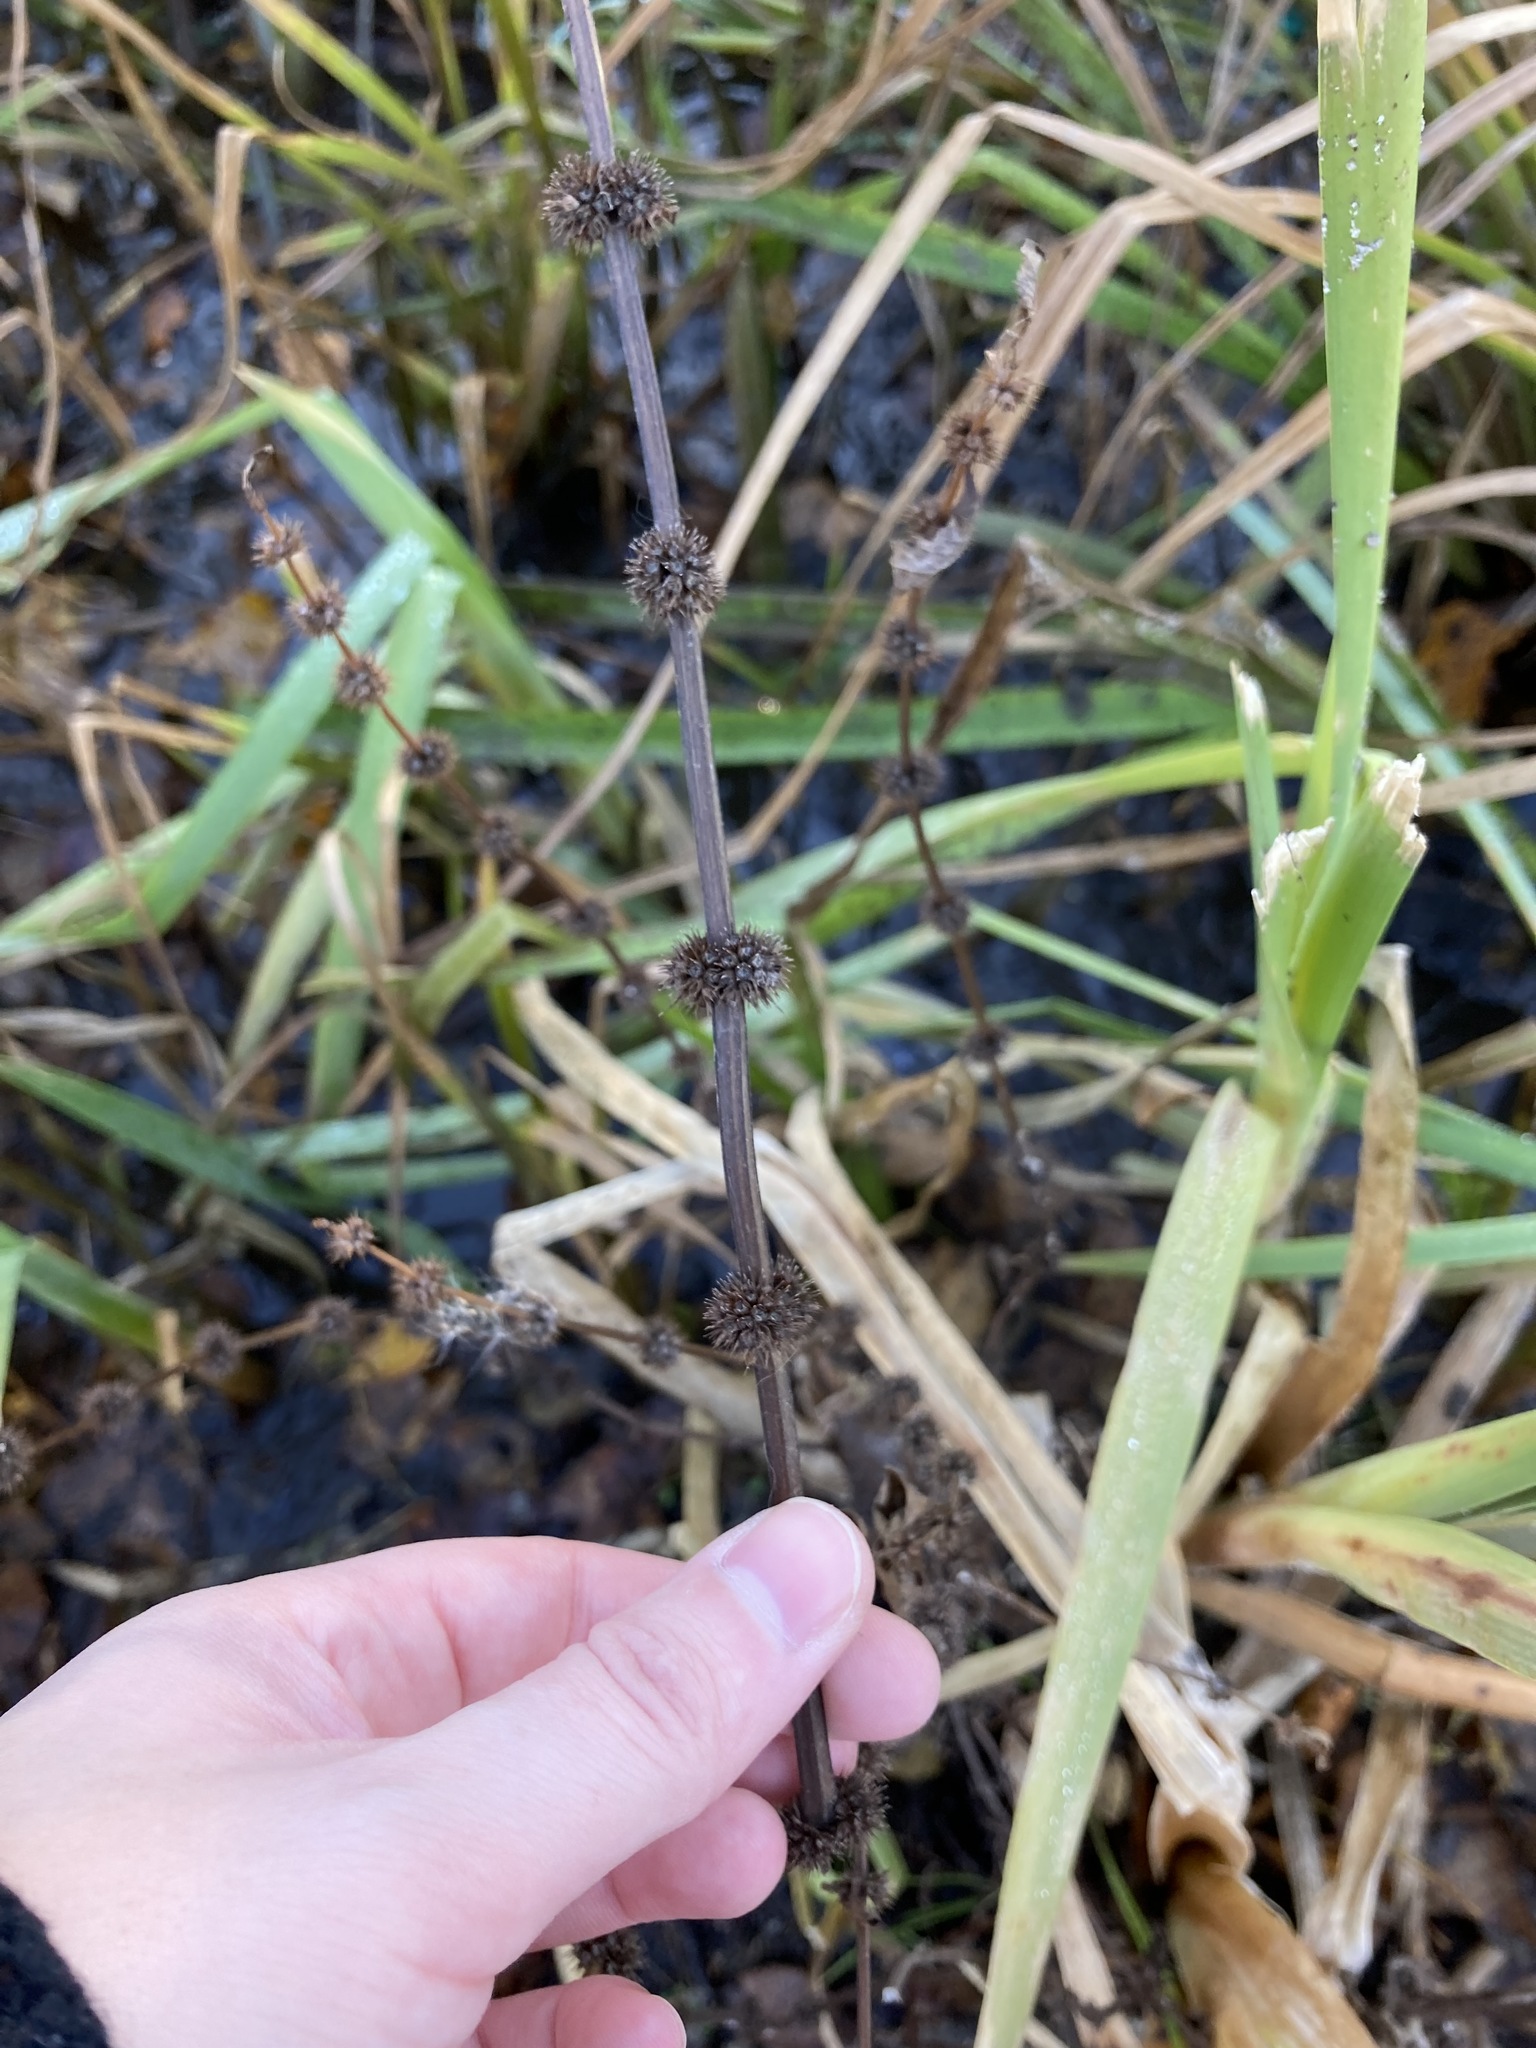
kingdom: Plantae
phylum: Tracheophyta
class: Magnoliopsida
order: Lamiales
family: Lamiaceae
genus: Lycopus
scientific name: Lycopus europaeus
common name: European bugleweed
